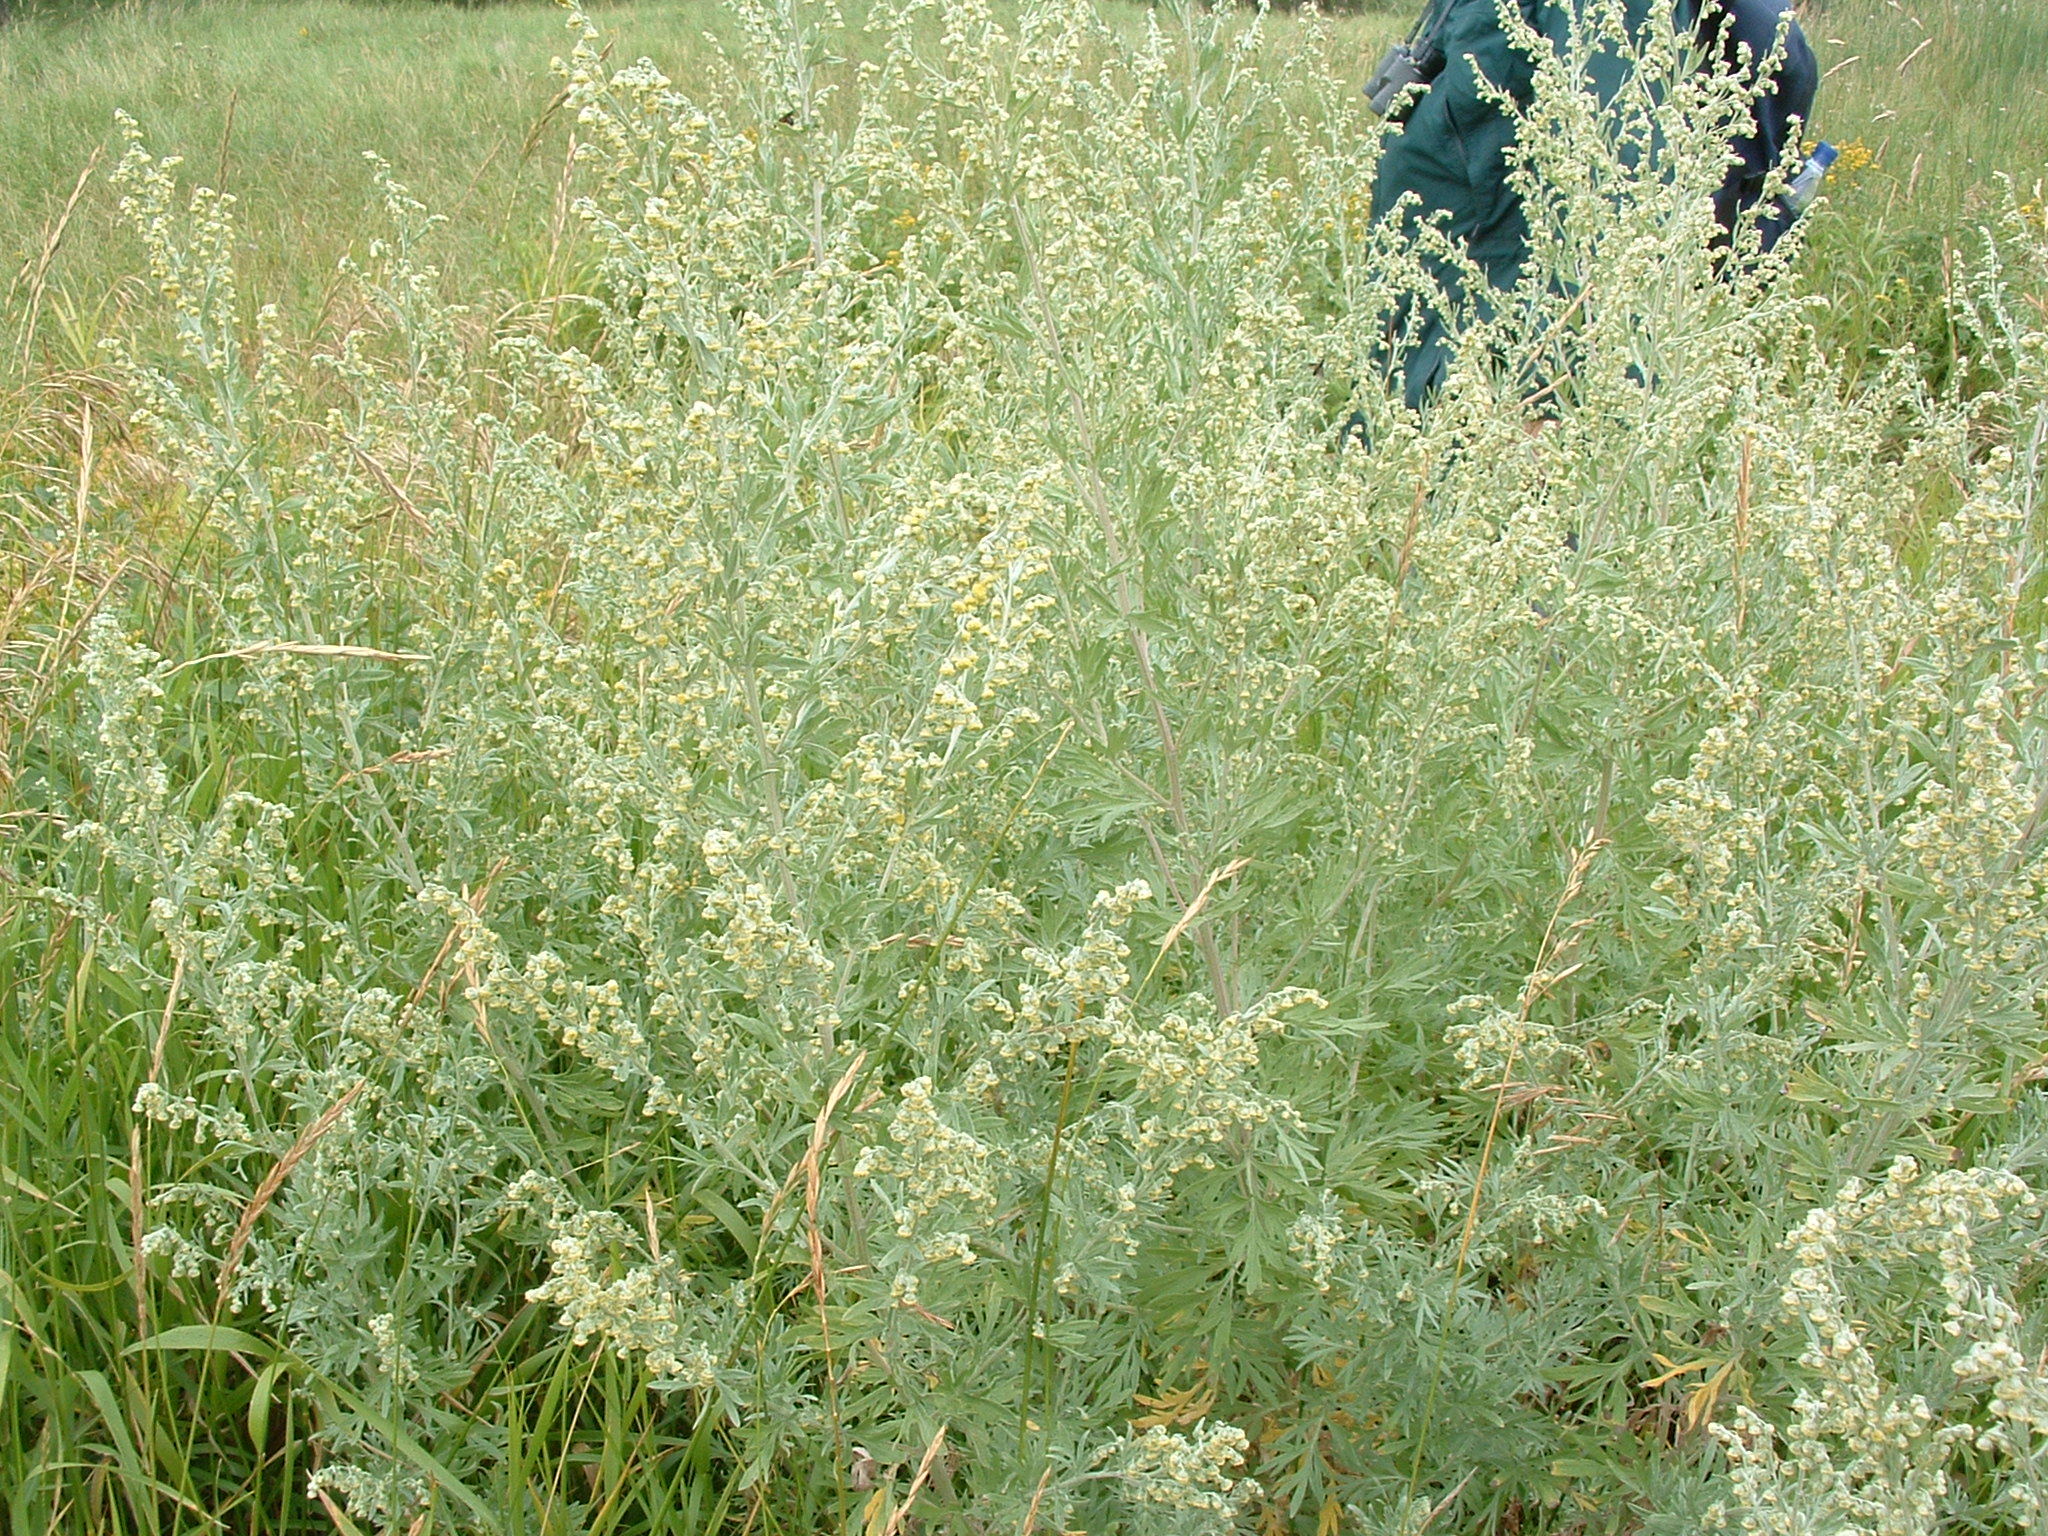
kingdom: Plantae
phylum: Tracheophyta
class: Magnoliopsida
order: Asterales
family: Asteraceae
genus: Artemisia
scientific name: Artemisia absinthium
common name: Wormwood
